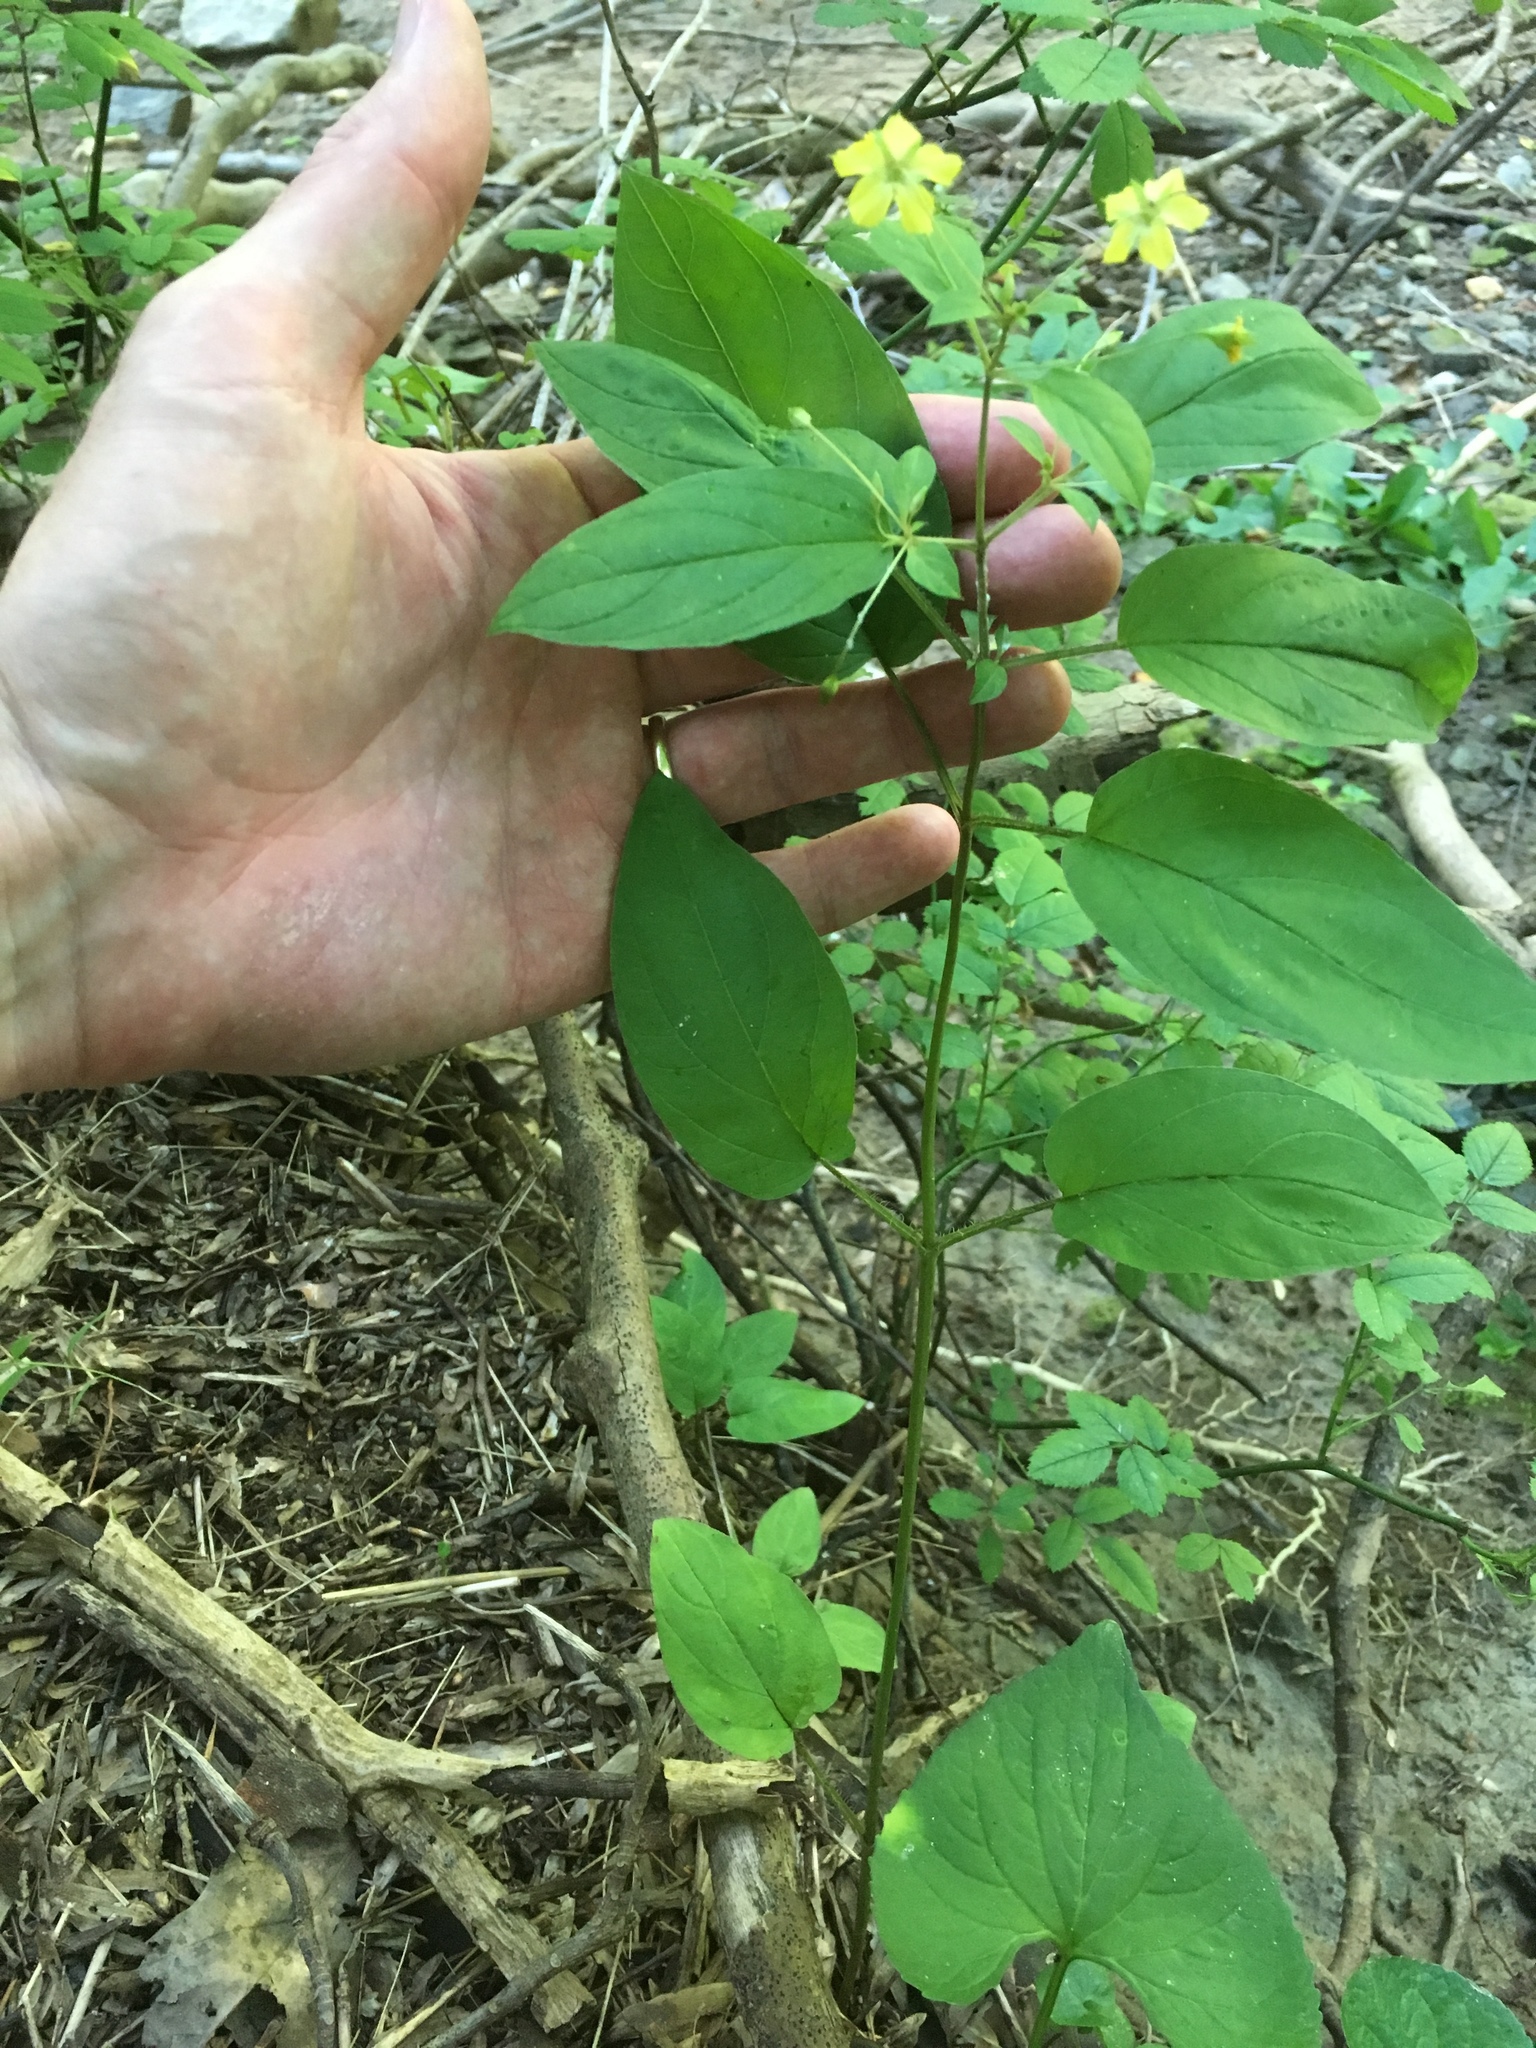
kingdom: Plantae
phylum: Tracheophyta
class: Magnoliopsida
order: Ericales
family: Primulaceae
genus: Lysimachia
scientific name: Lysimachia ciliata
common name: Fringed loosestrife
